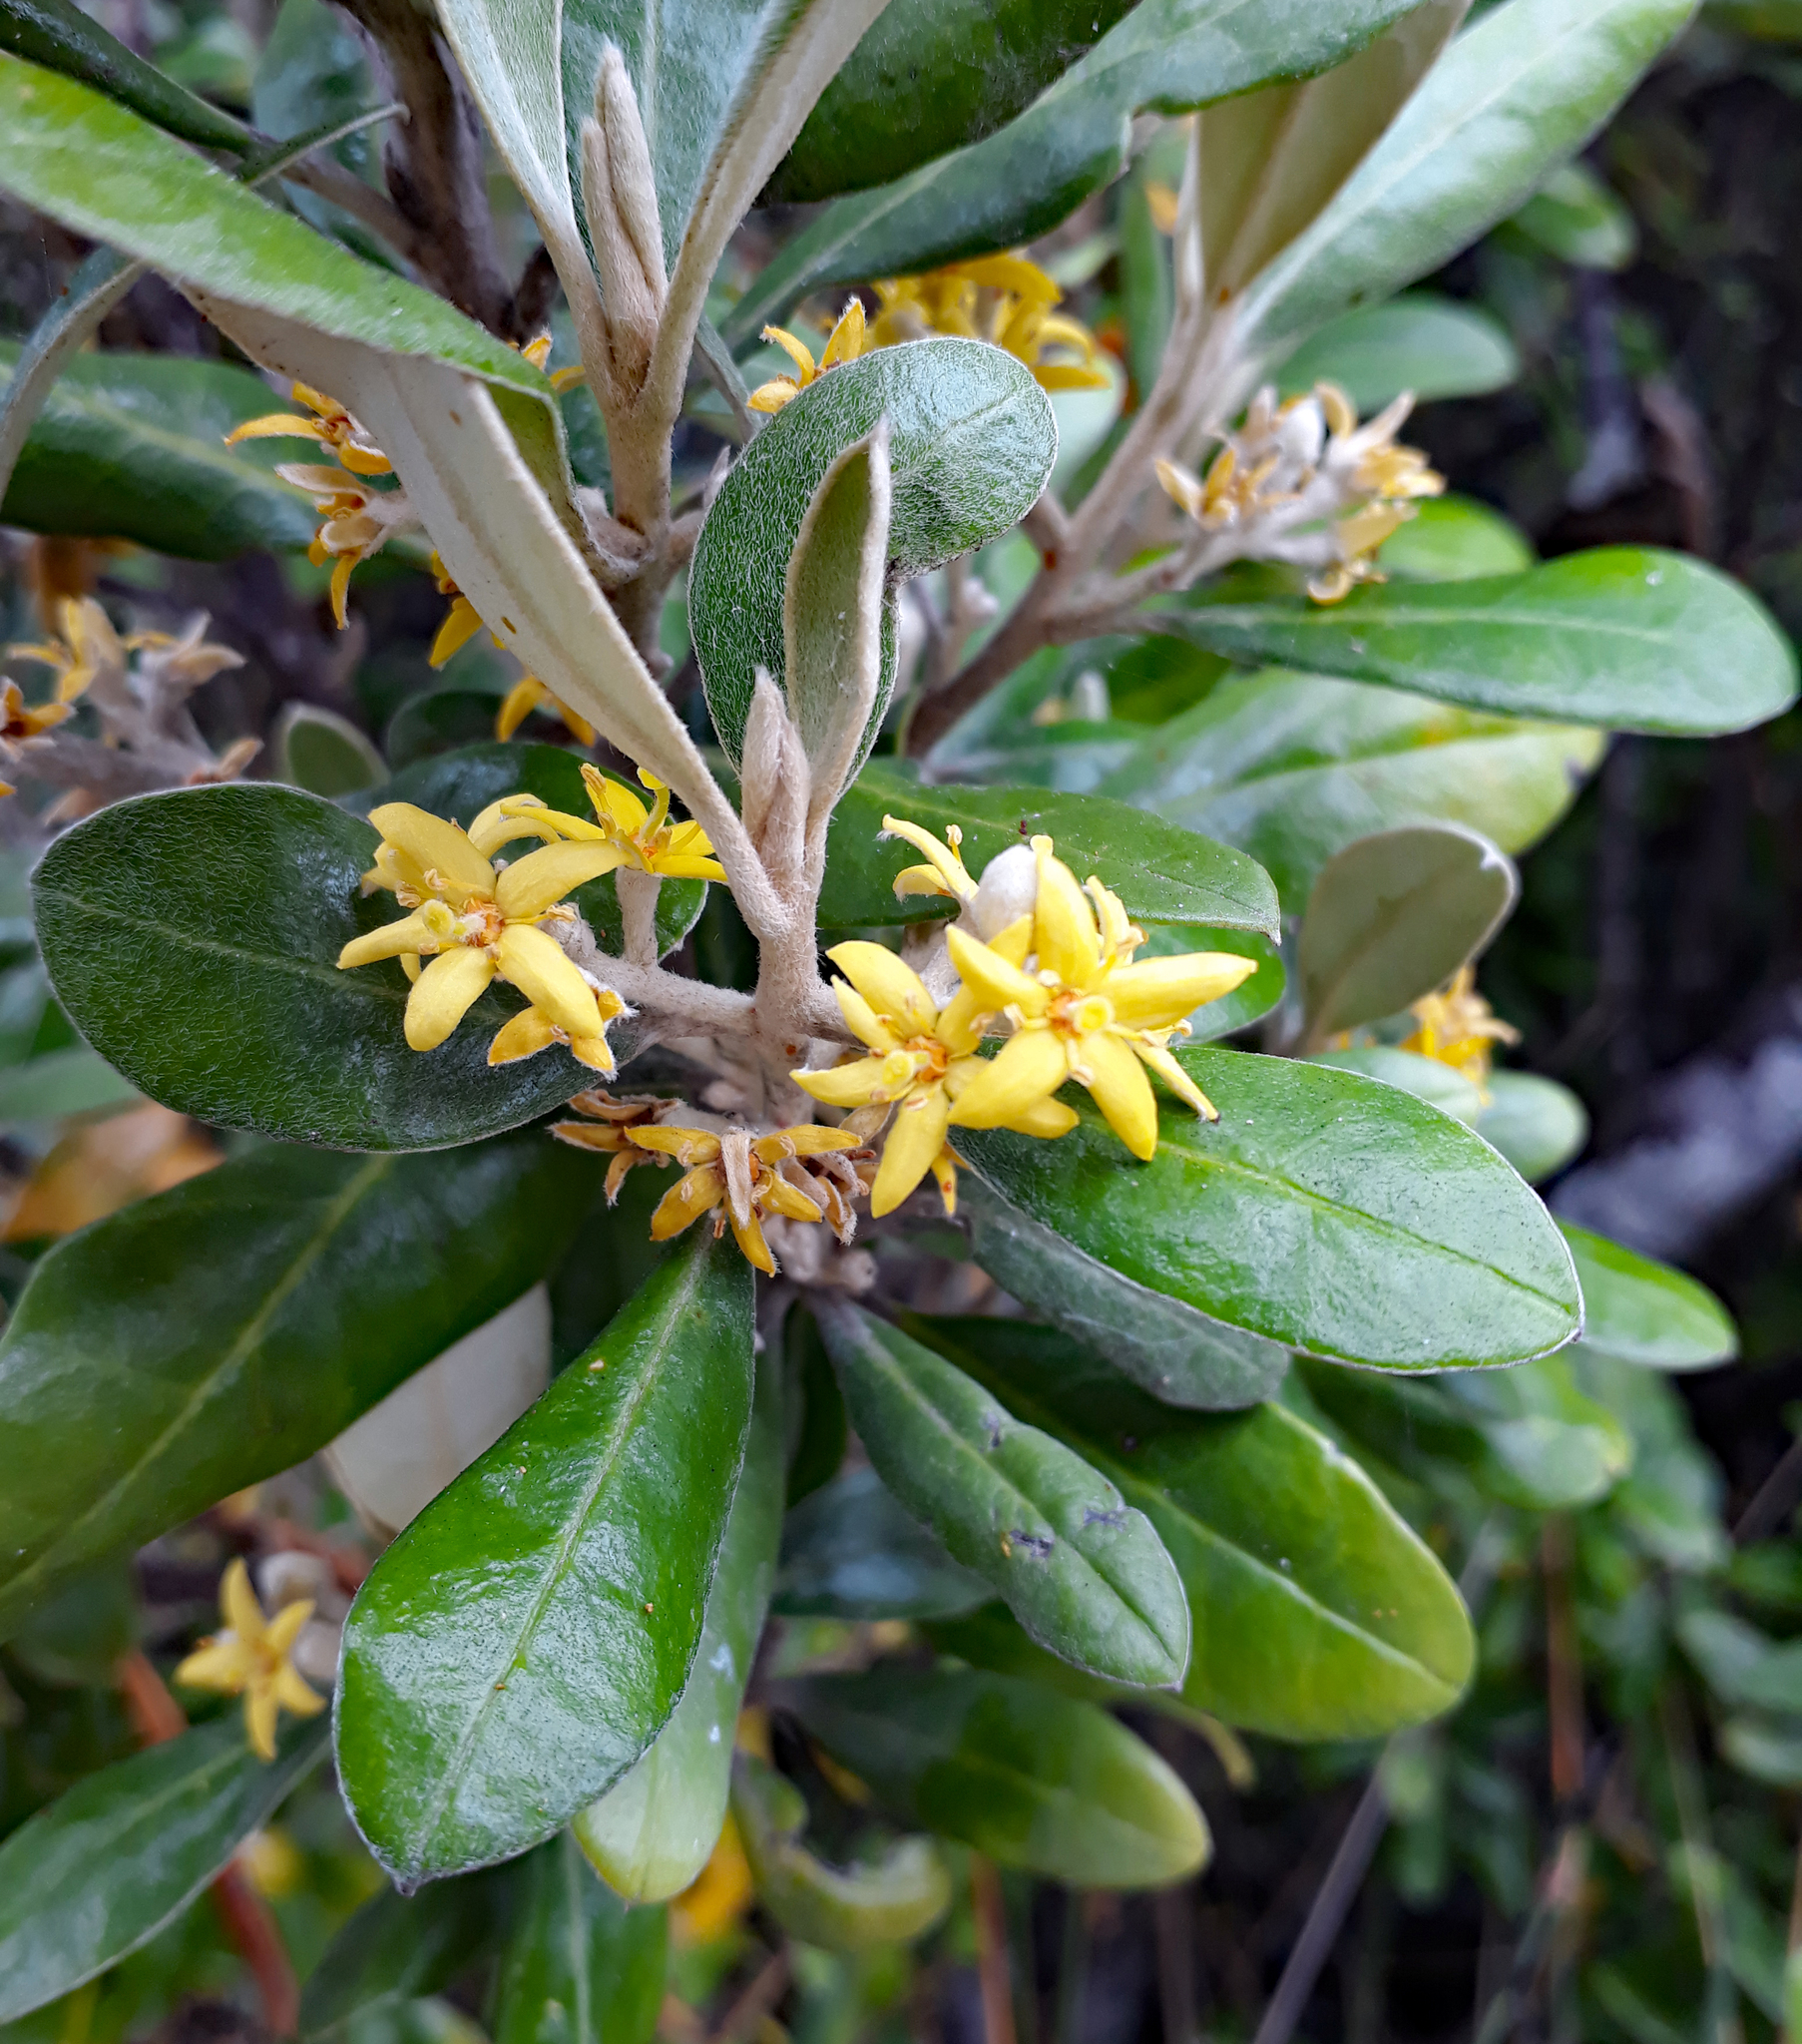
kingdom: Plantae
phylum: Tracheophyta
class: Magnoliopsida
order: Asterales
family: Argophyllaceae
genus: Corokia
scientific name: Corokia macrocarpa
